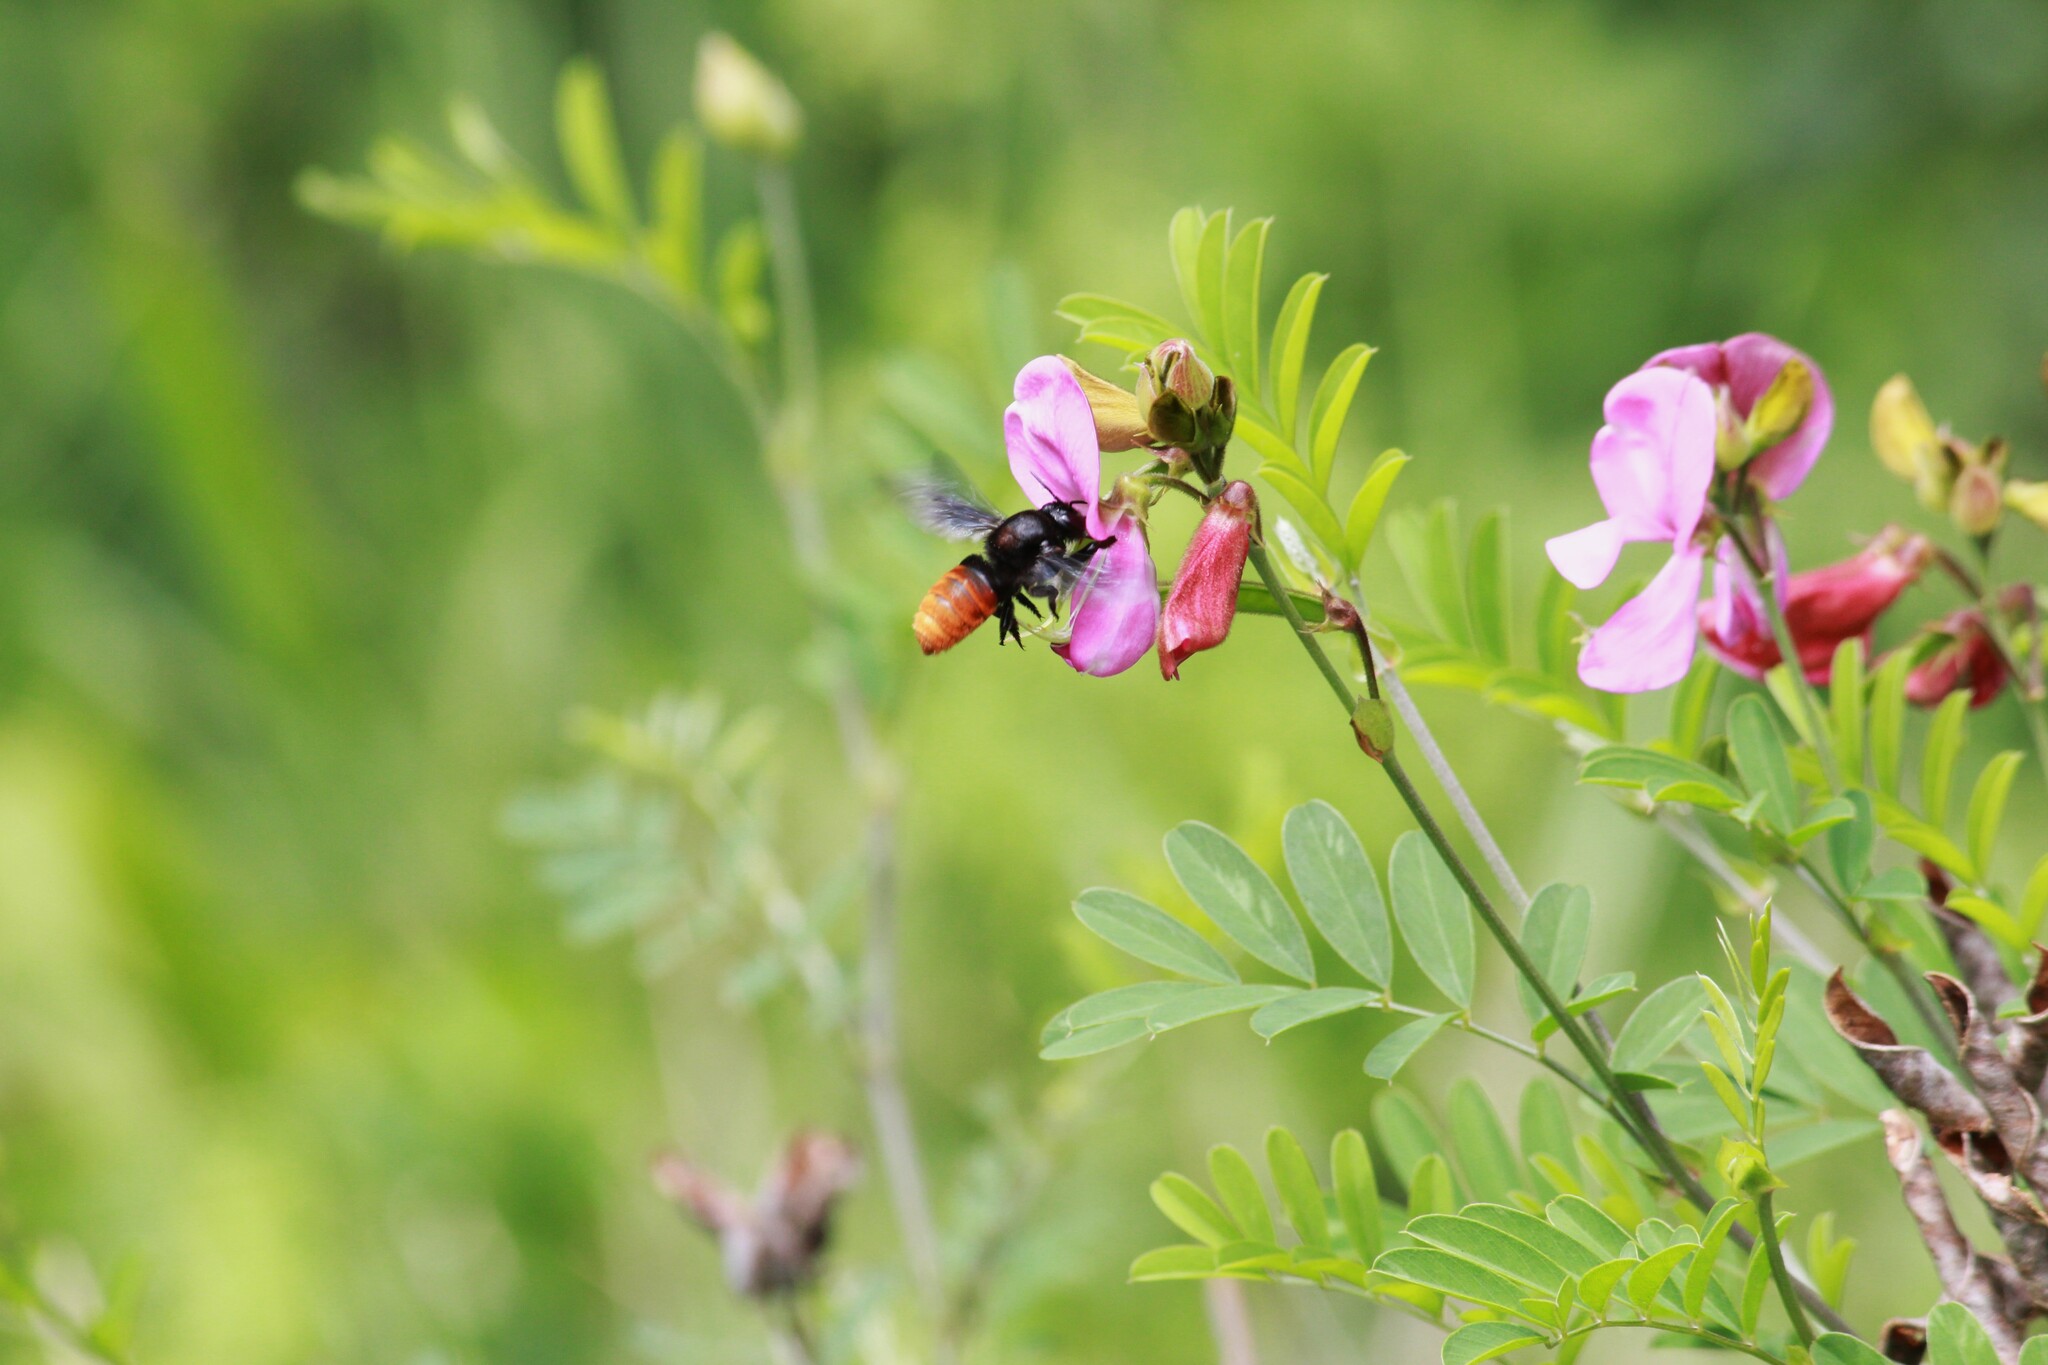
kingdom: Animalia
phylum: Arthropoda
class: Insecta
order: Hymenoptera
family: Megachilidae
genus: Gronoceras
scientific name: Gronoceras cinctum
